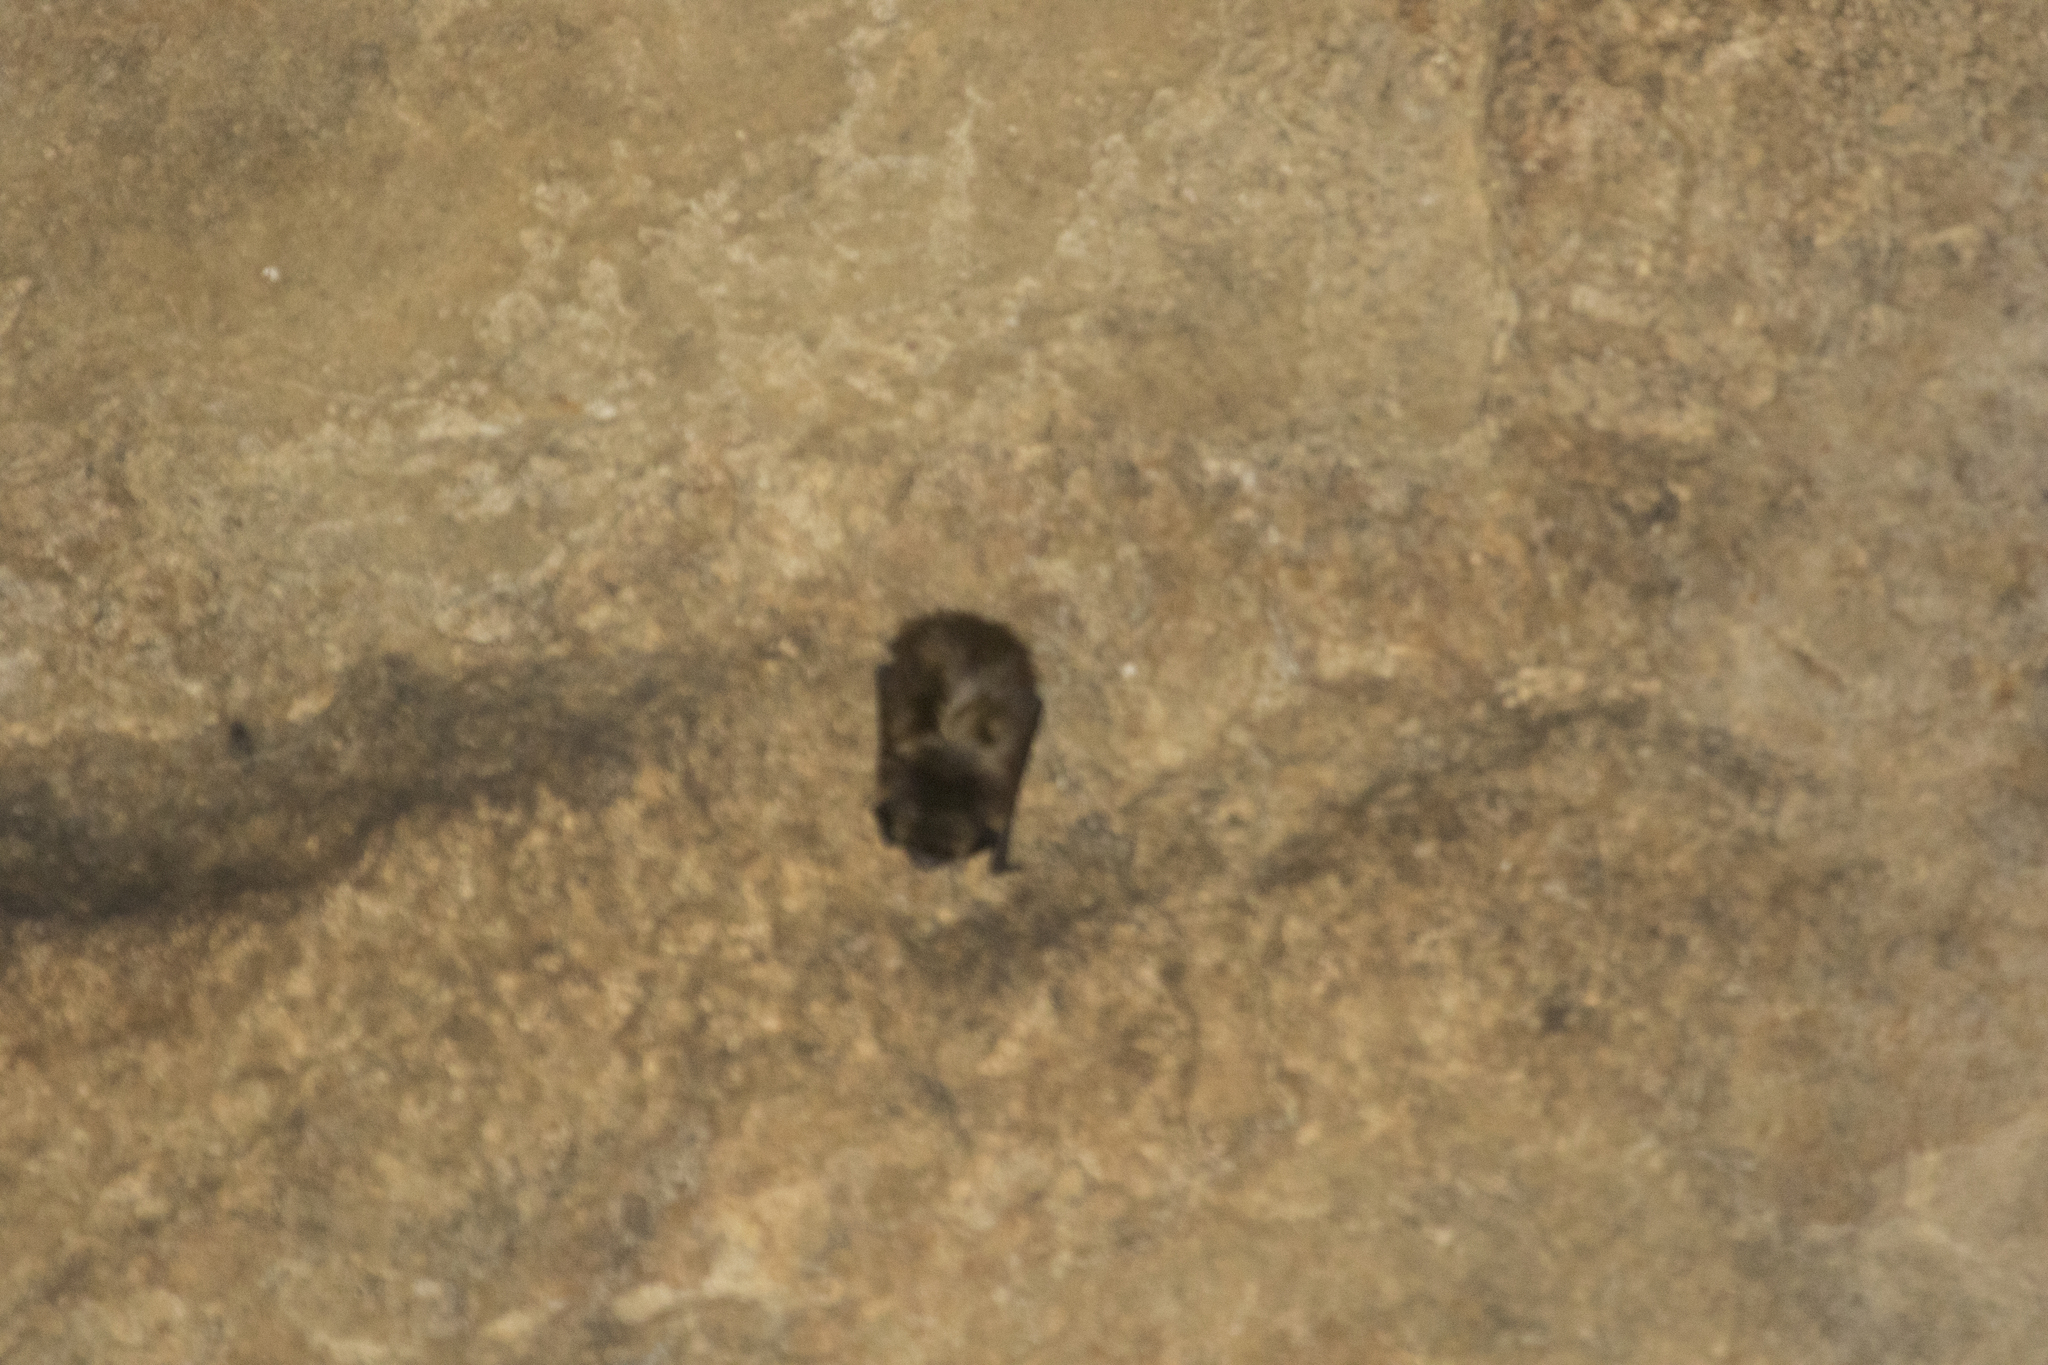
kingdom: Animalia
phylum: Chordata
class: Mammalia
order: Chiroptera
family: Vespertilionidae
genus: Eptesicus
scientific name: Eptesicus nilssonii
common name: Northern bat
